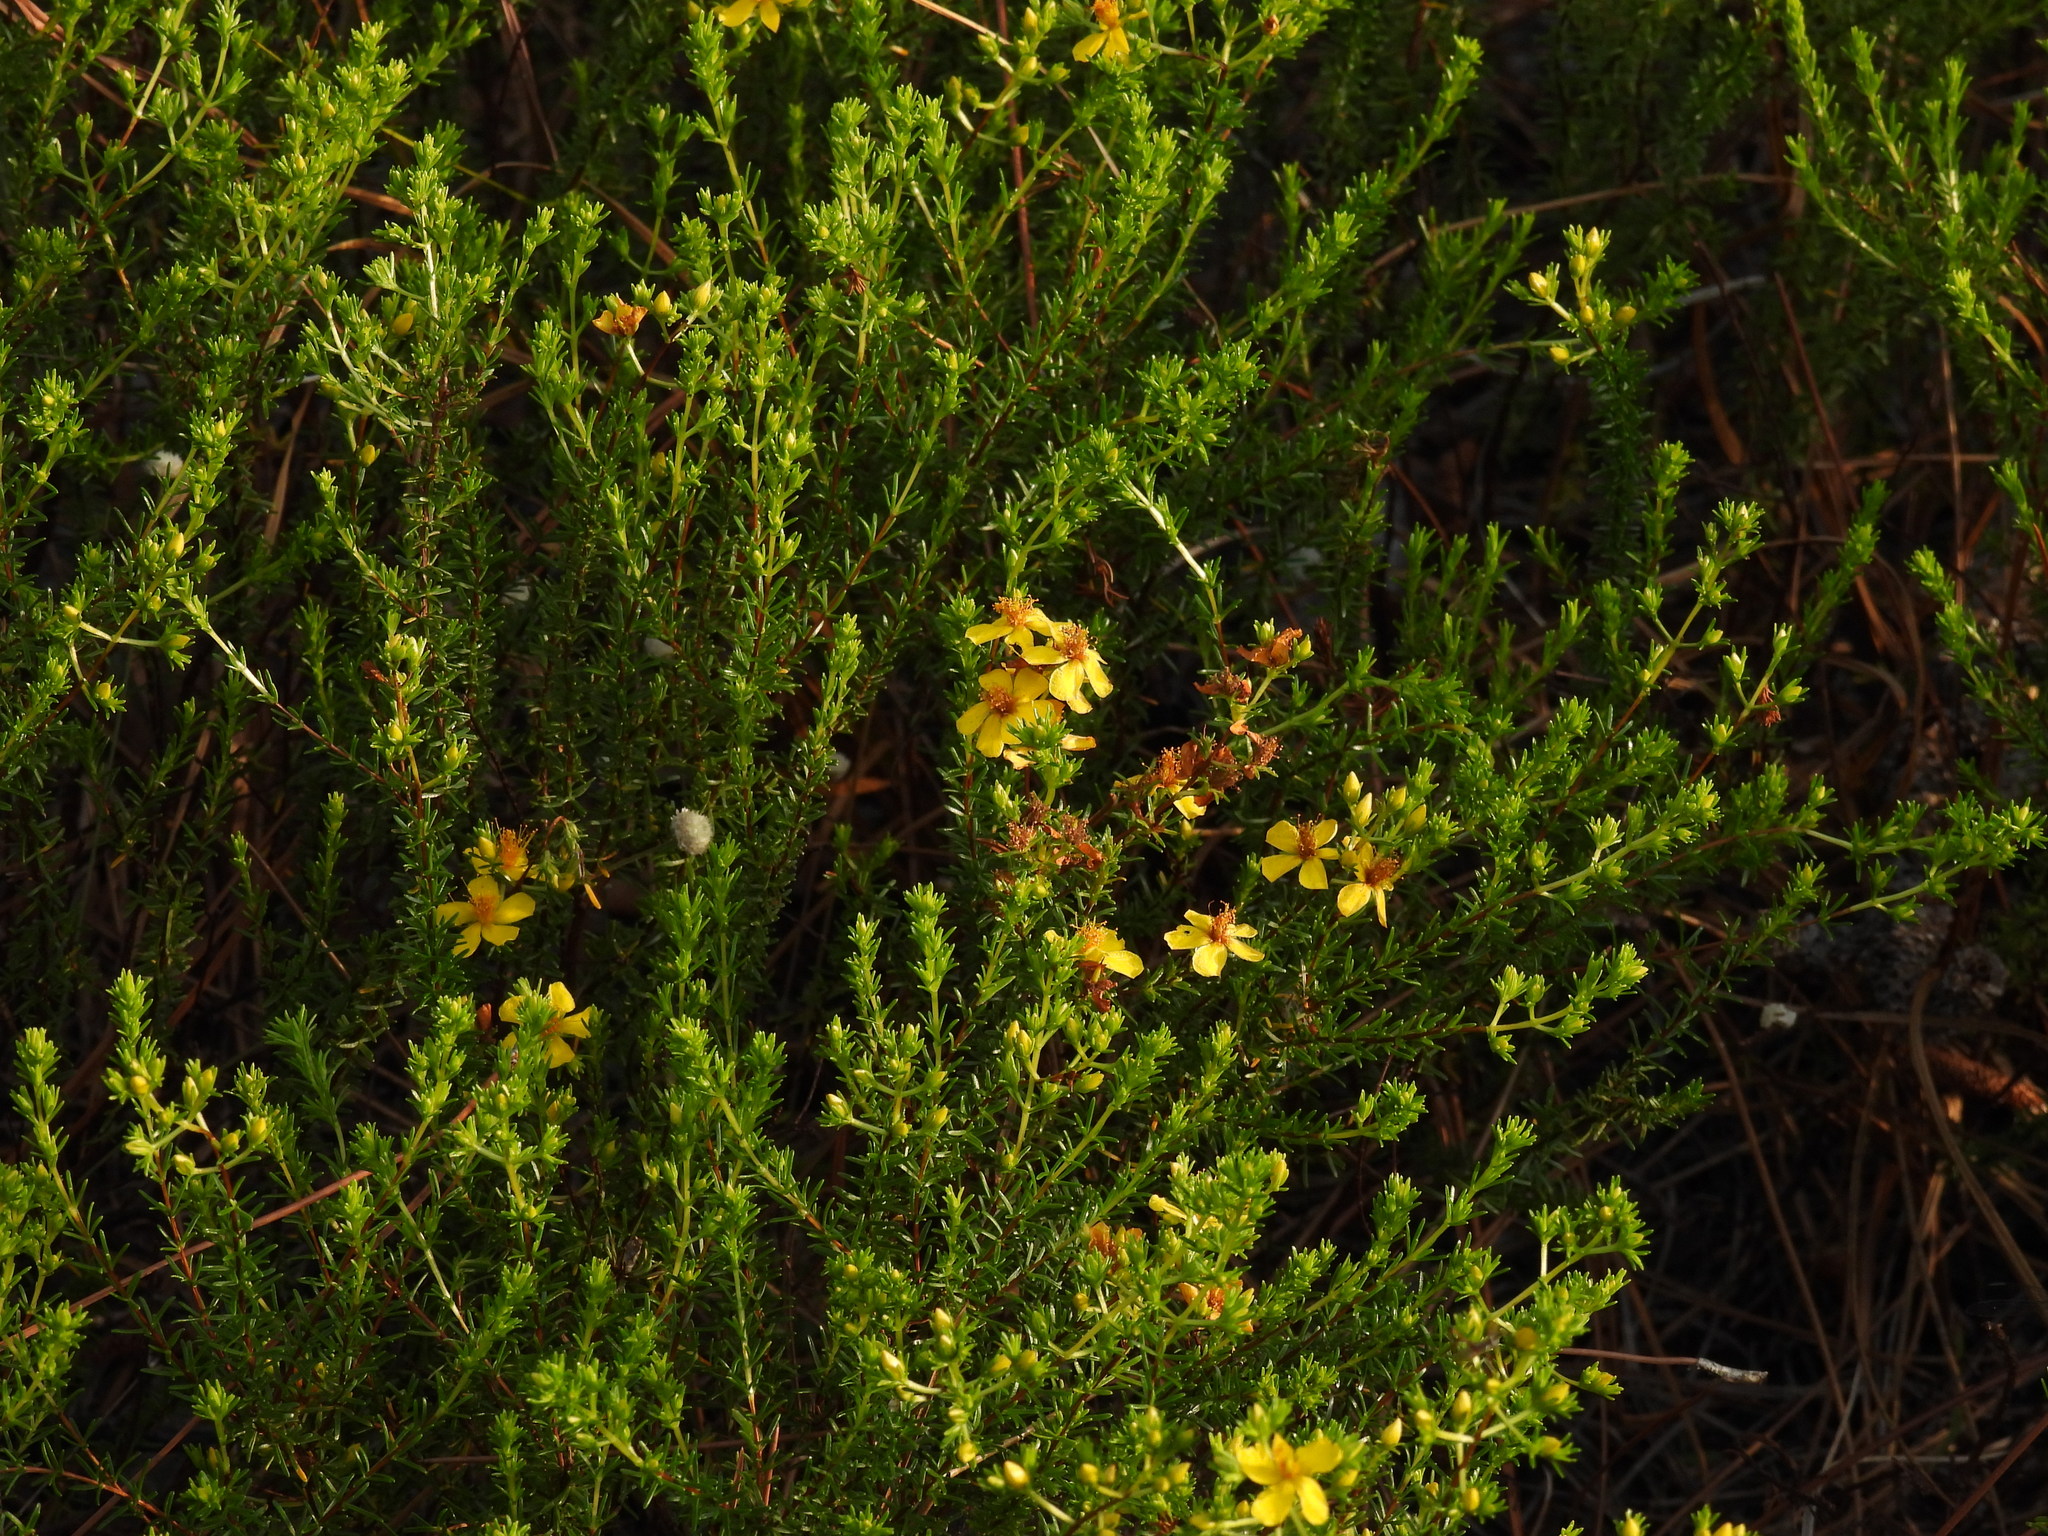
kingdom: Plantae
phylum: Tracheophyta
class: Magnoliopsida
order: Malpighiales
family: Hypericaceae
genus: Hypericum
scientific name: Hypericum tenuifolium
